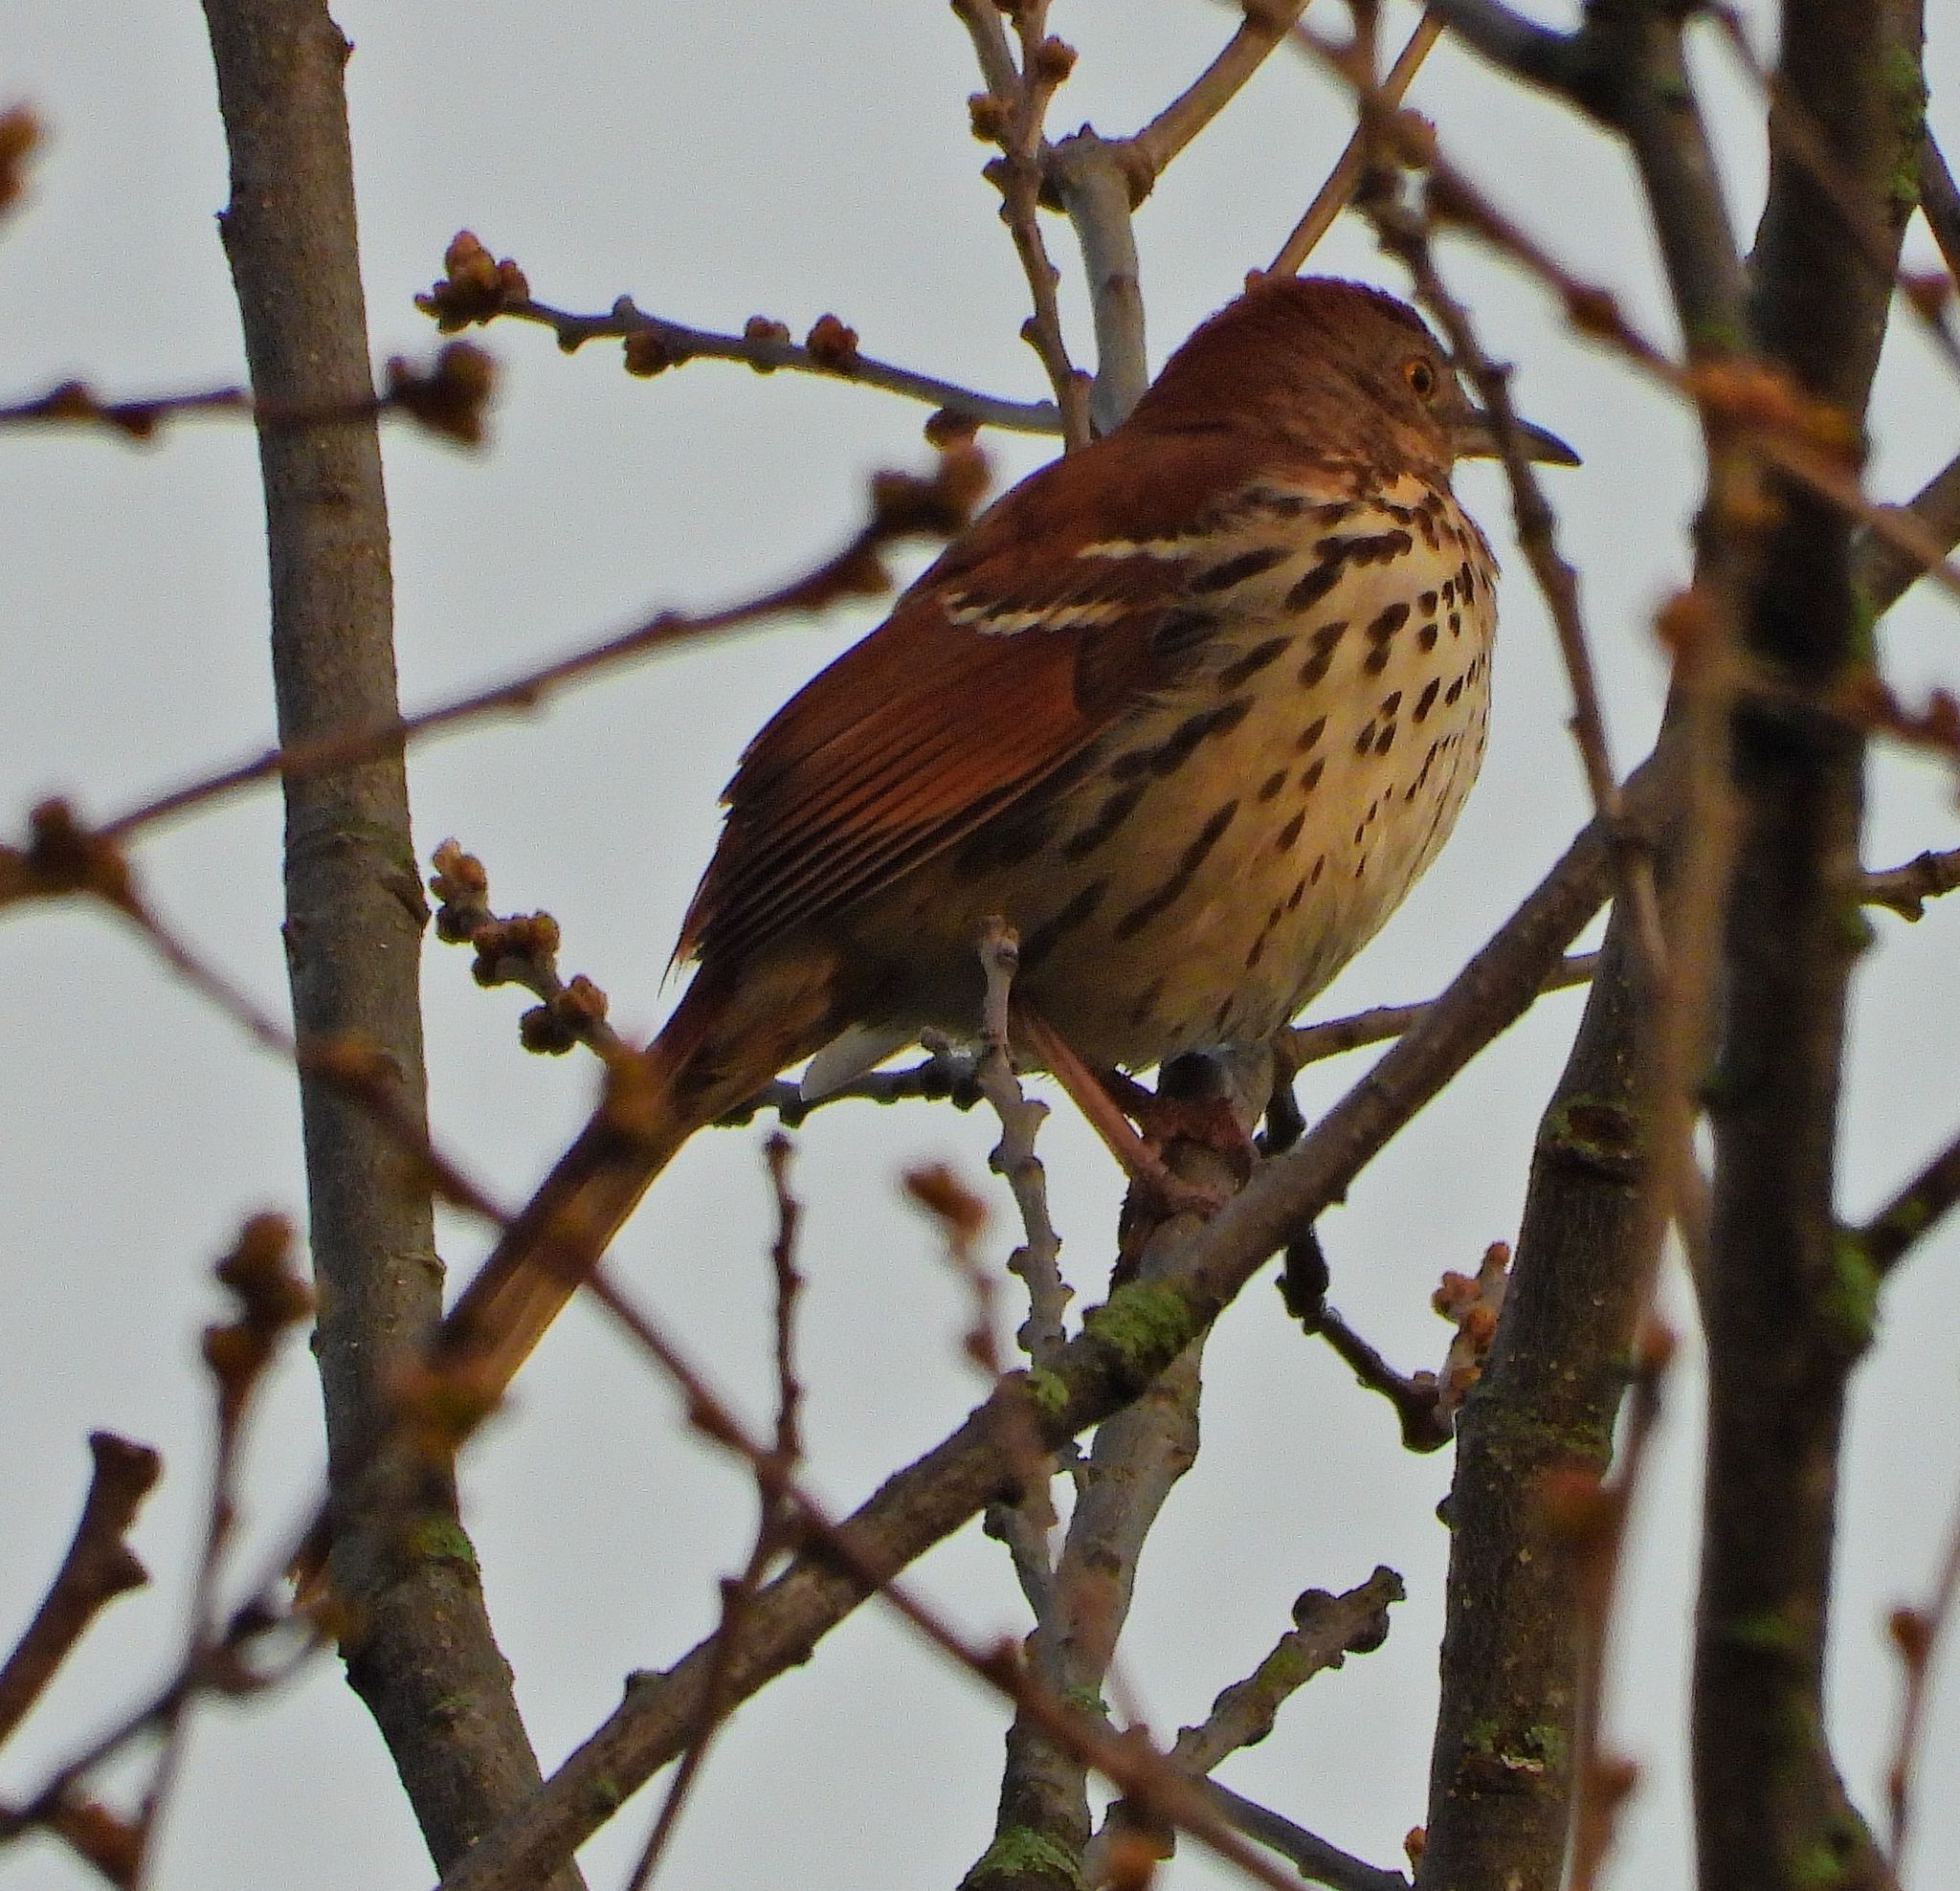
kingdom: Animalia
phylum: Chordata
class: Aves
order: Passeriformes
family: Mimidae
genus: Toxostoma
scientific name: Toxostoma rufum
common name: Brown thrasher
